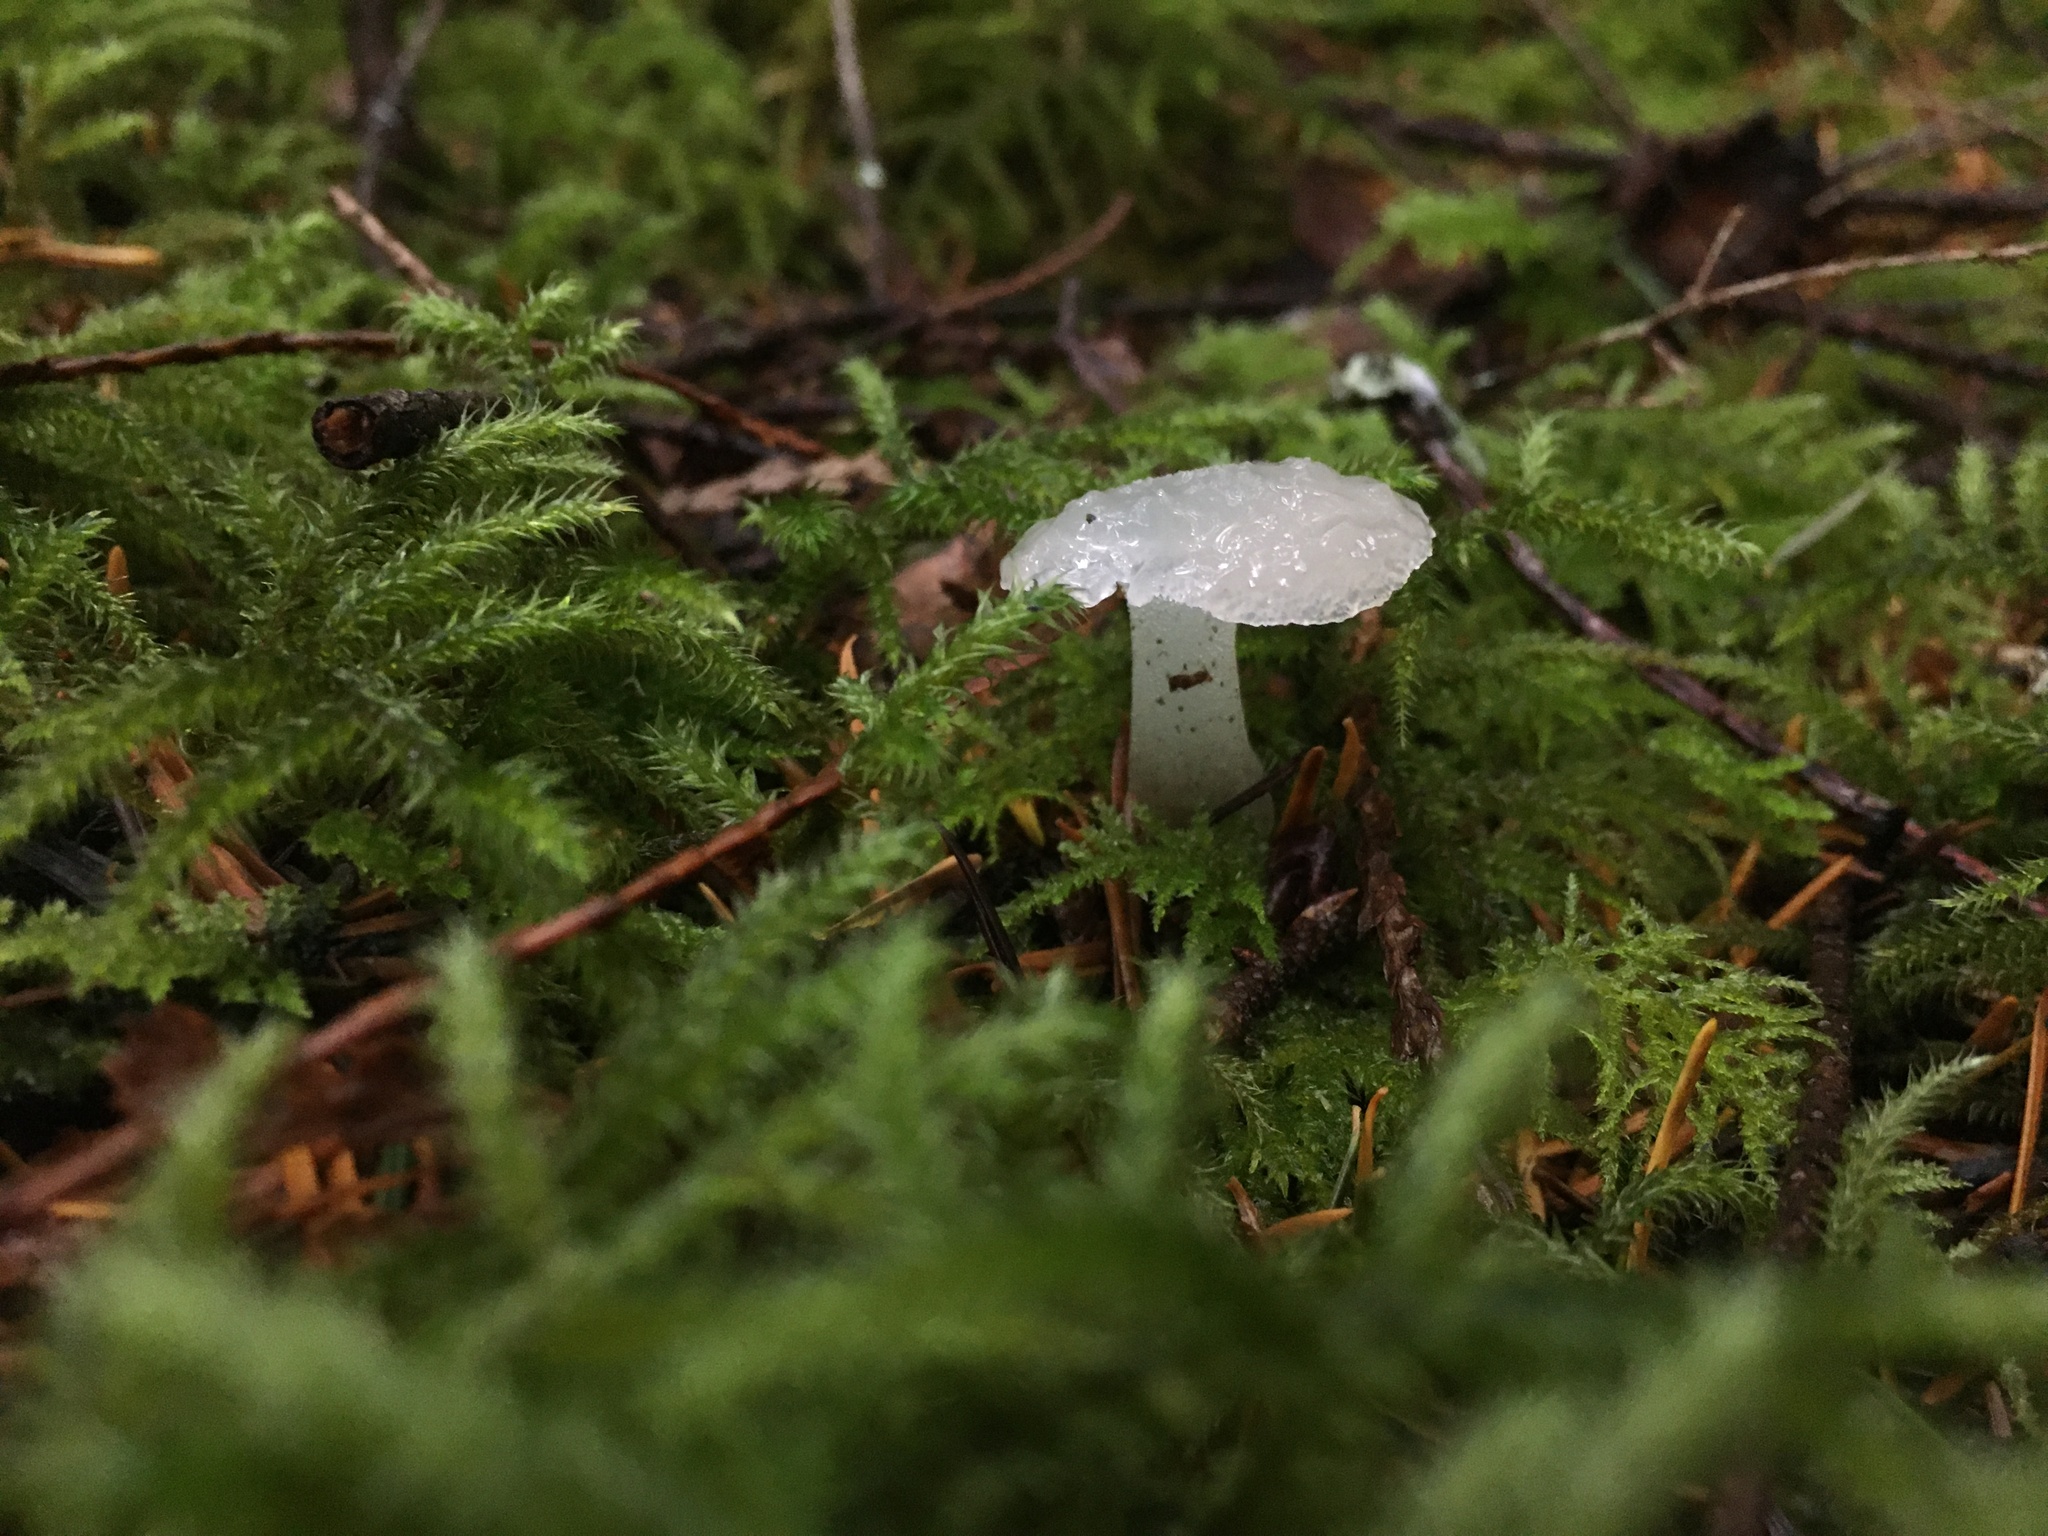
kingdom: Fungi
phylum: Basidiomycota
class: Agaricomycetes
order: Auriculariales
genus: Pseudohydnum
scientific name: Pseudohydnum gelatinosum
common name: Jelly tongue
